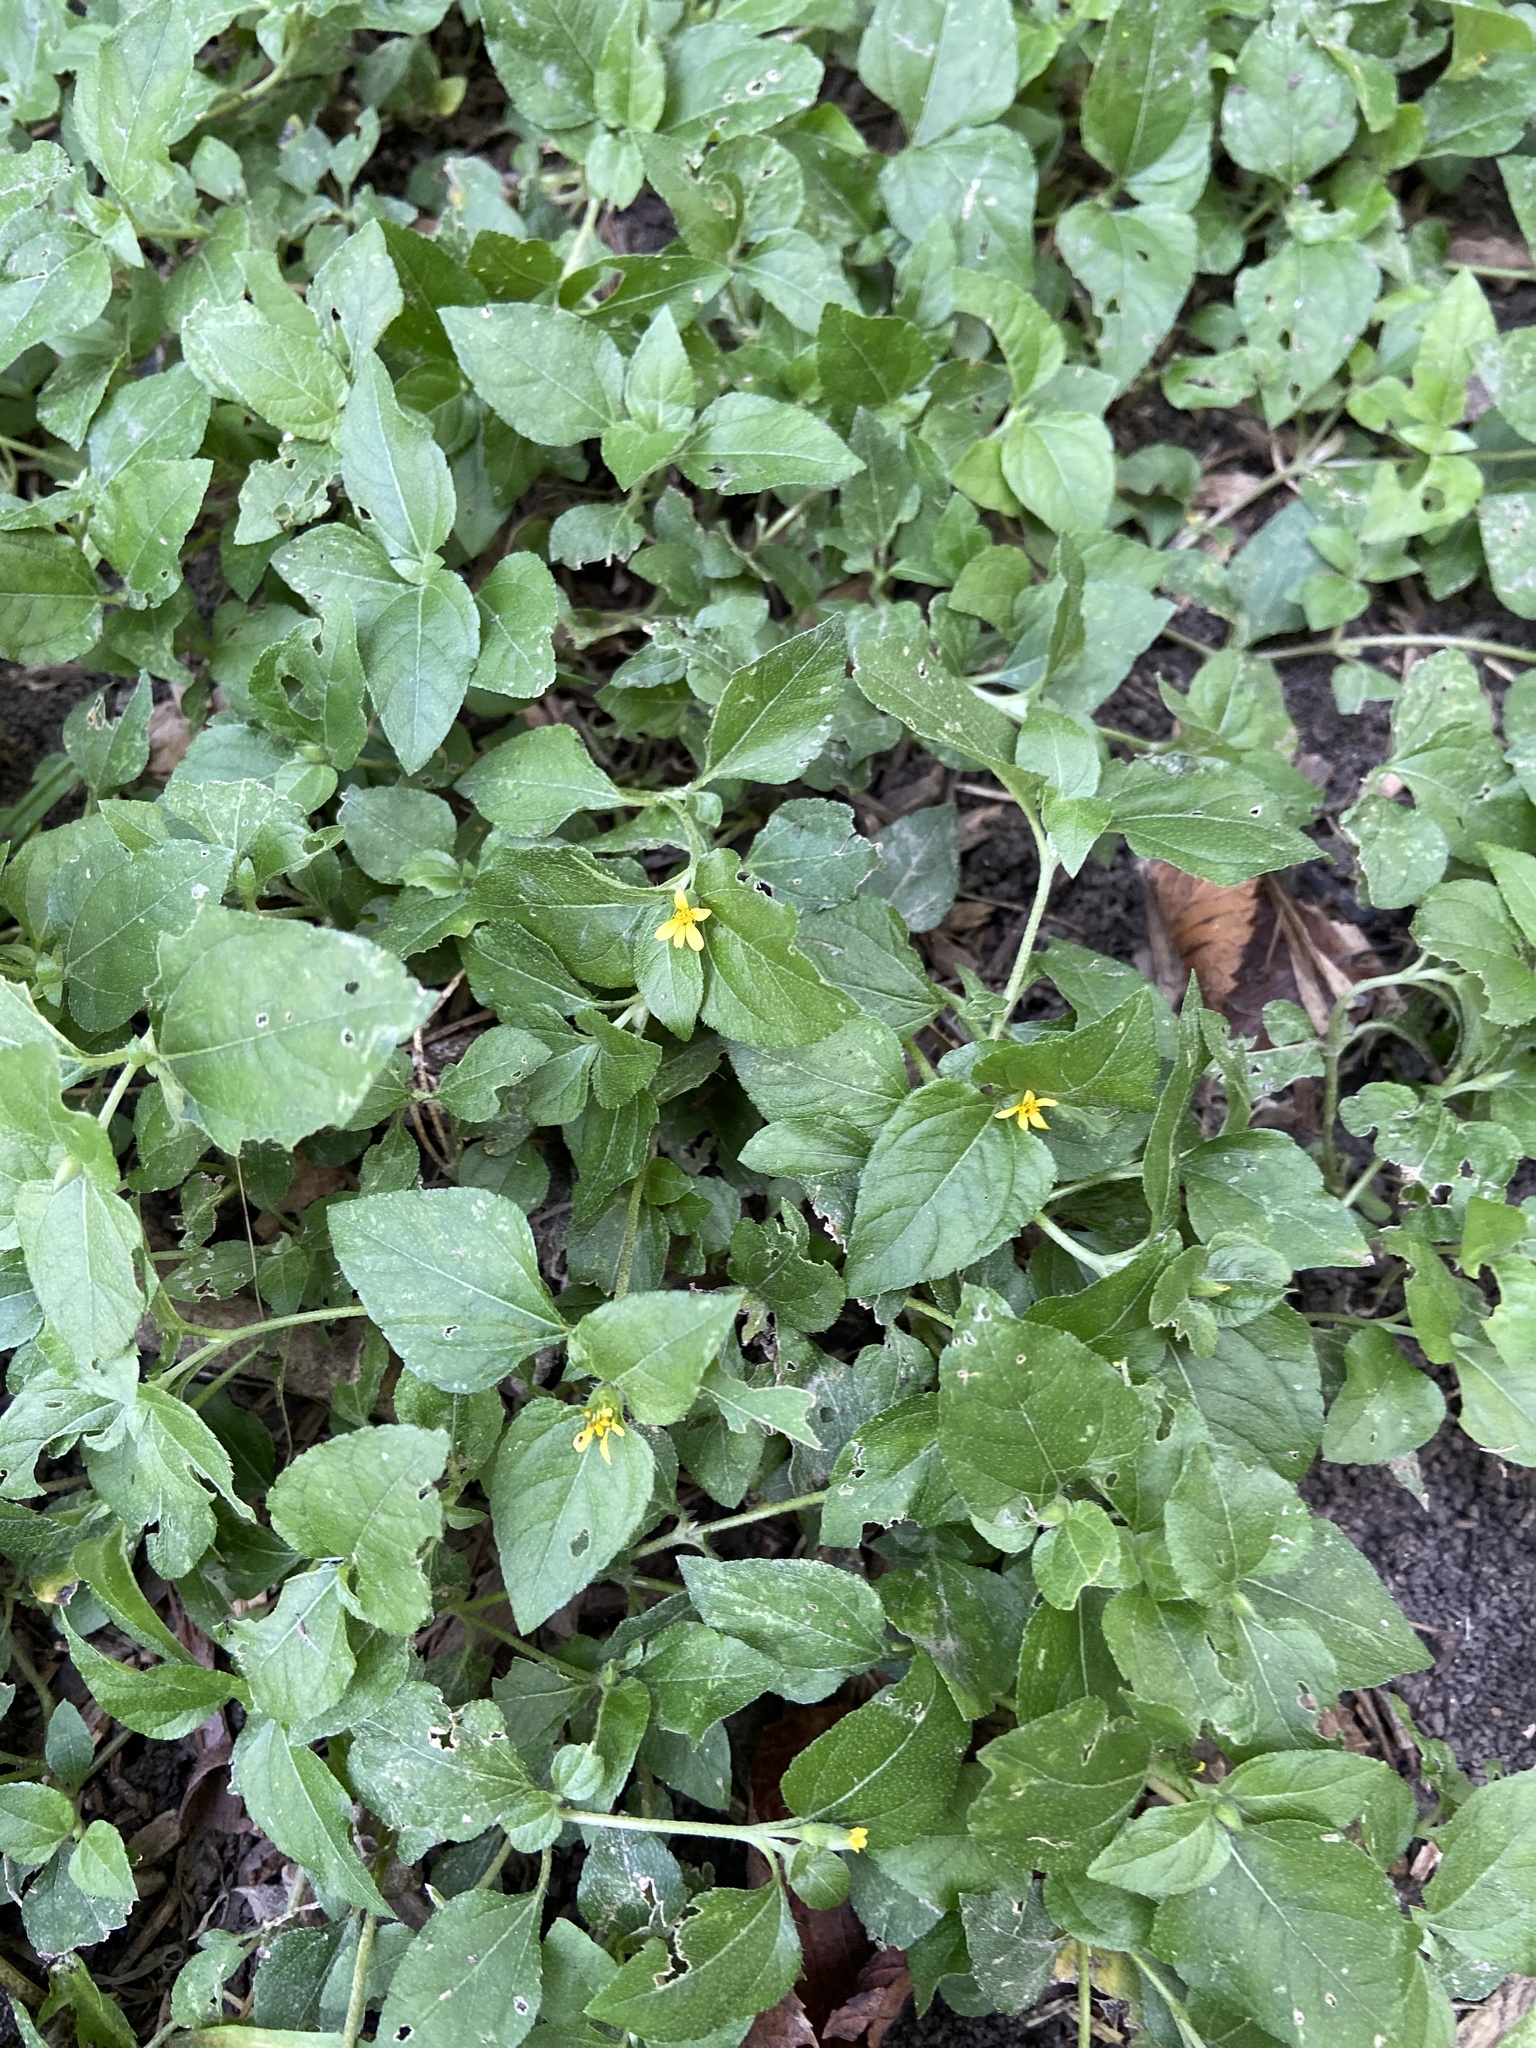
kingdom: Plantae
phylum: Tracheophyta
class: Magnoliopsida
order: Asterales
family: Asteraceae
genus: Calyptocarpus
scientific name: Calyptocarpus vialis
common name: Straggler daisy
